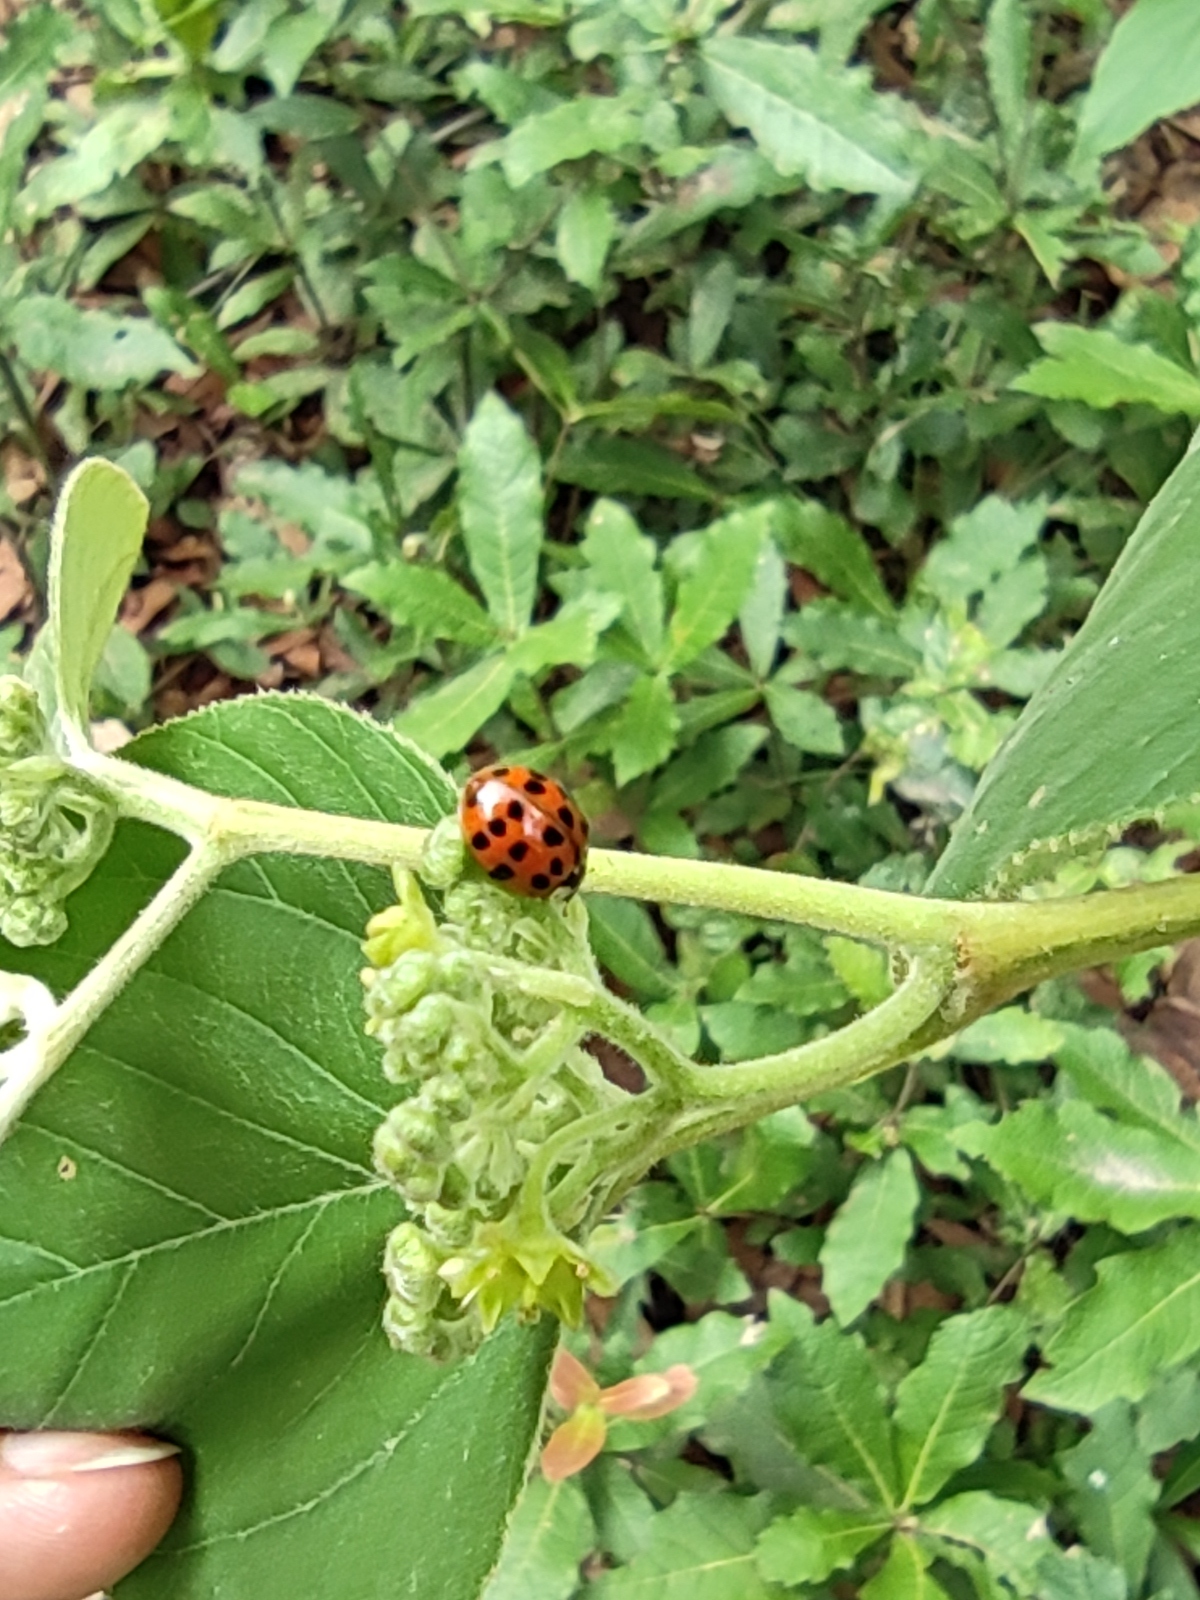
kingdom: Animalia
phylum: Arthropoda
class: Insecta
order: Coleoptera
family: Coccinellidae
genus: Harmonia
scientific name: Harmonia axyridis
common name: Harlequin ladybird
